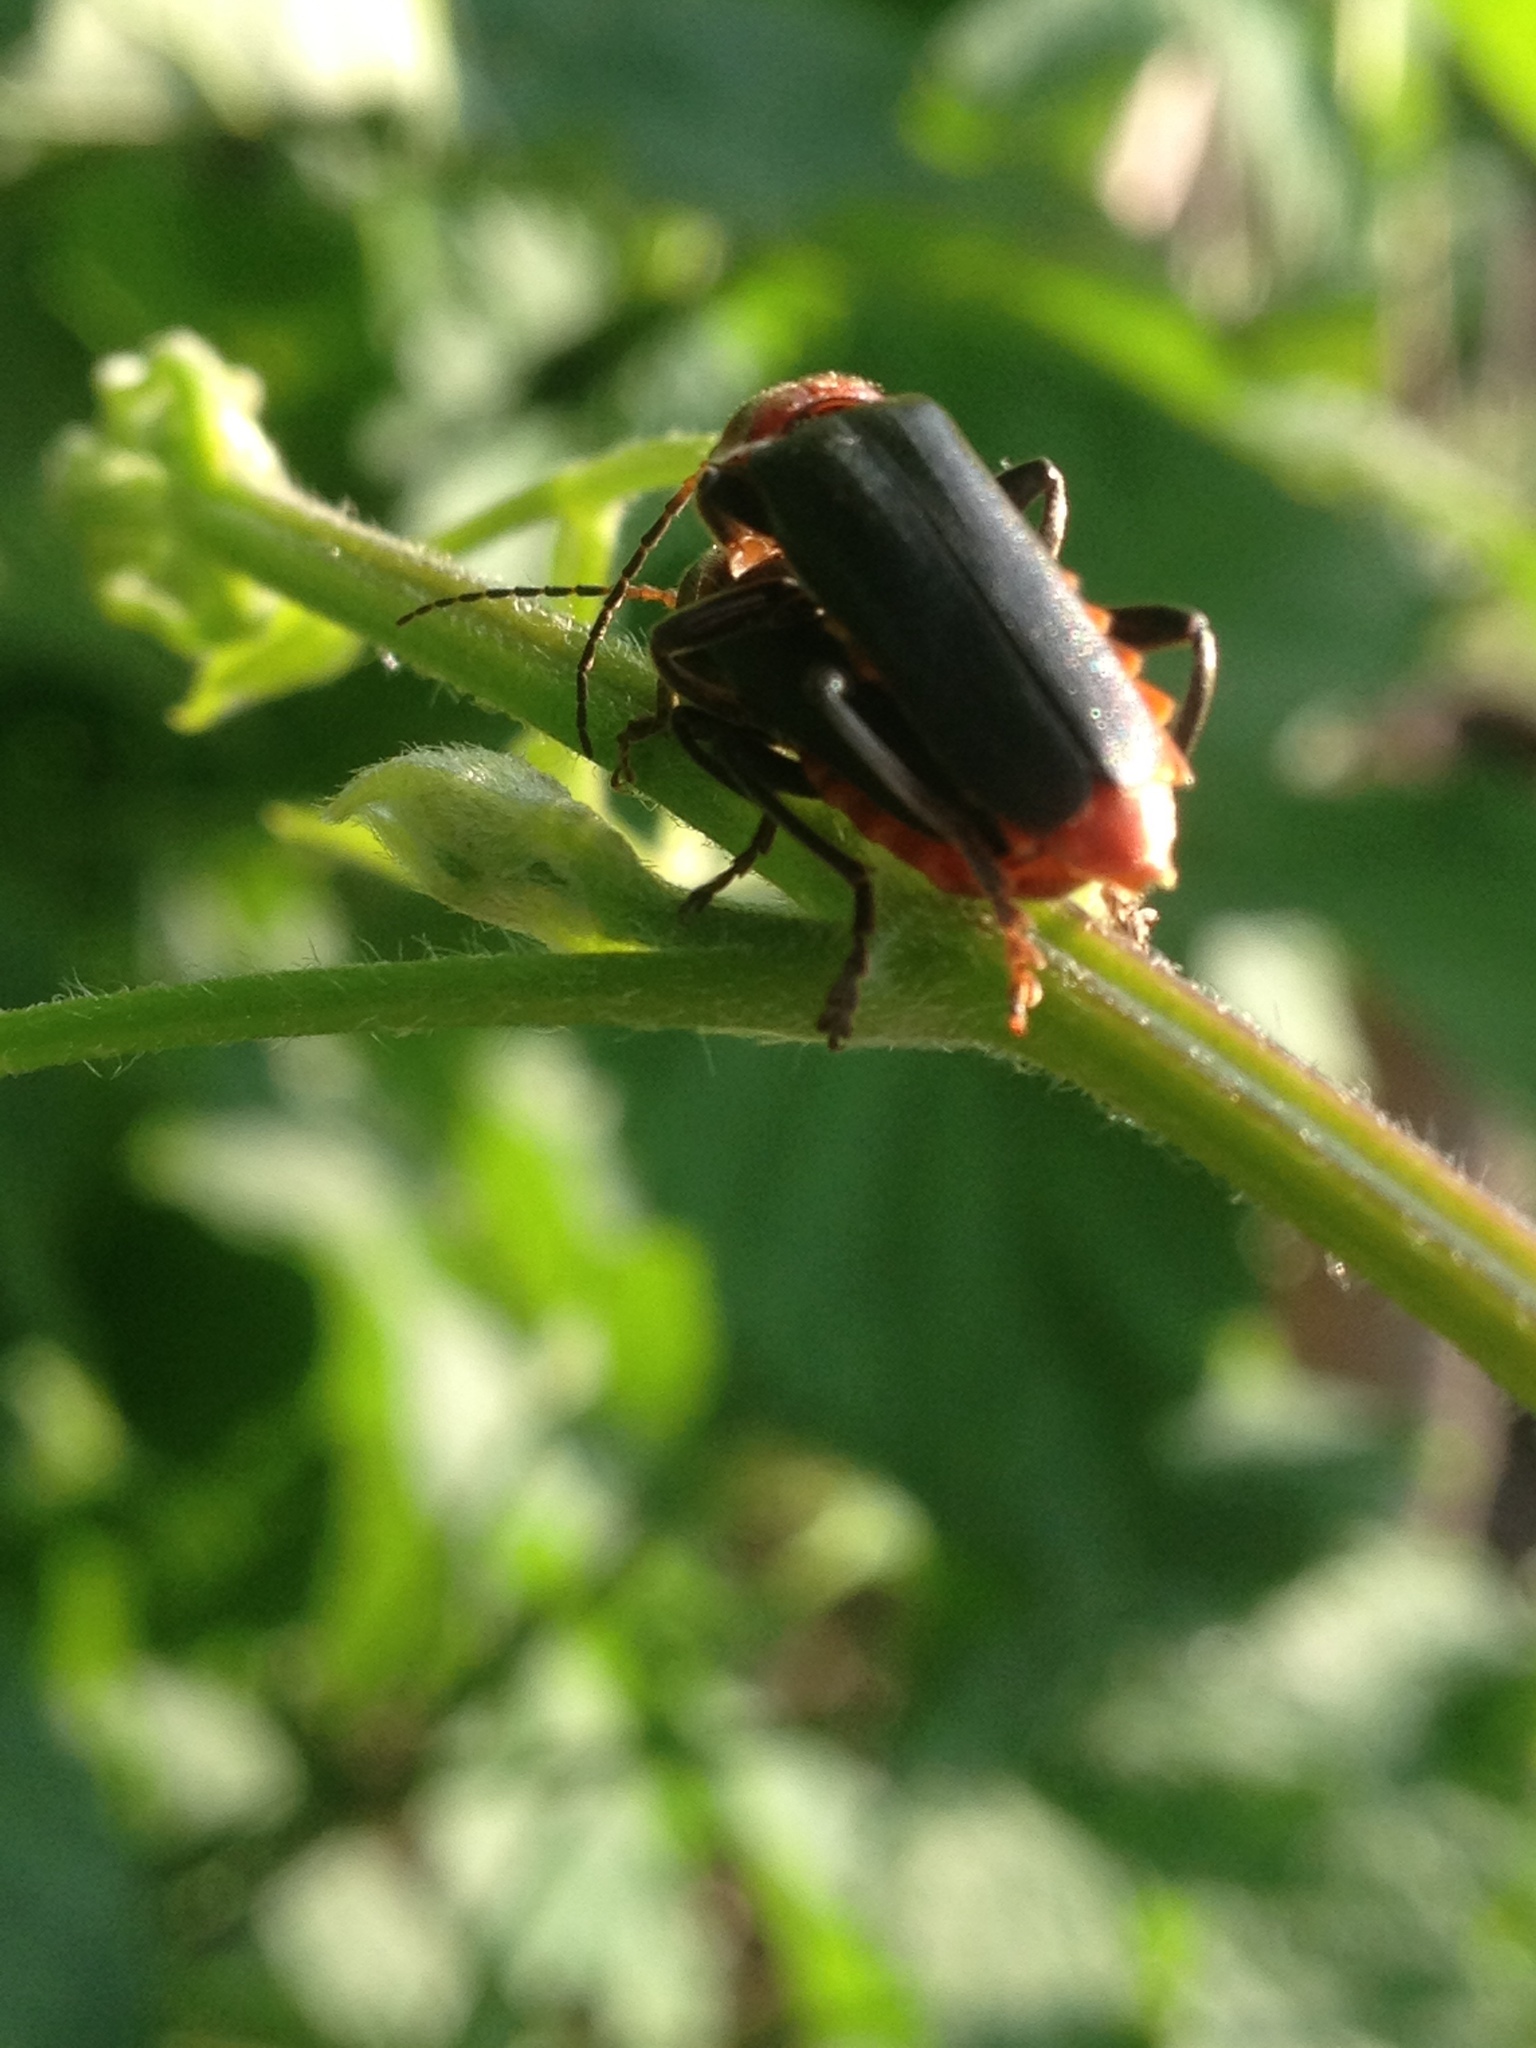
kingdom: Animalia
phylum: Arthropoda
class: Insecta
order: Coleoptera
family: Cantharidae
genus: Cantharis
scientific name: Cantharis fusca
